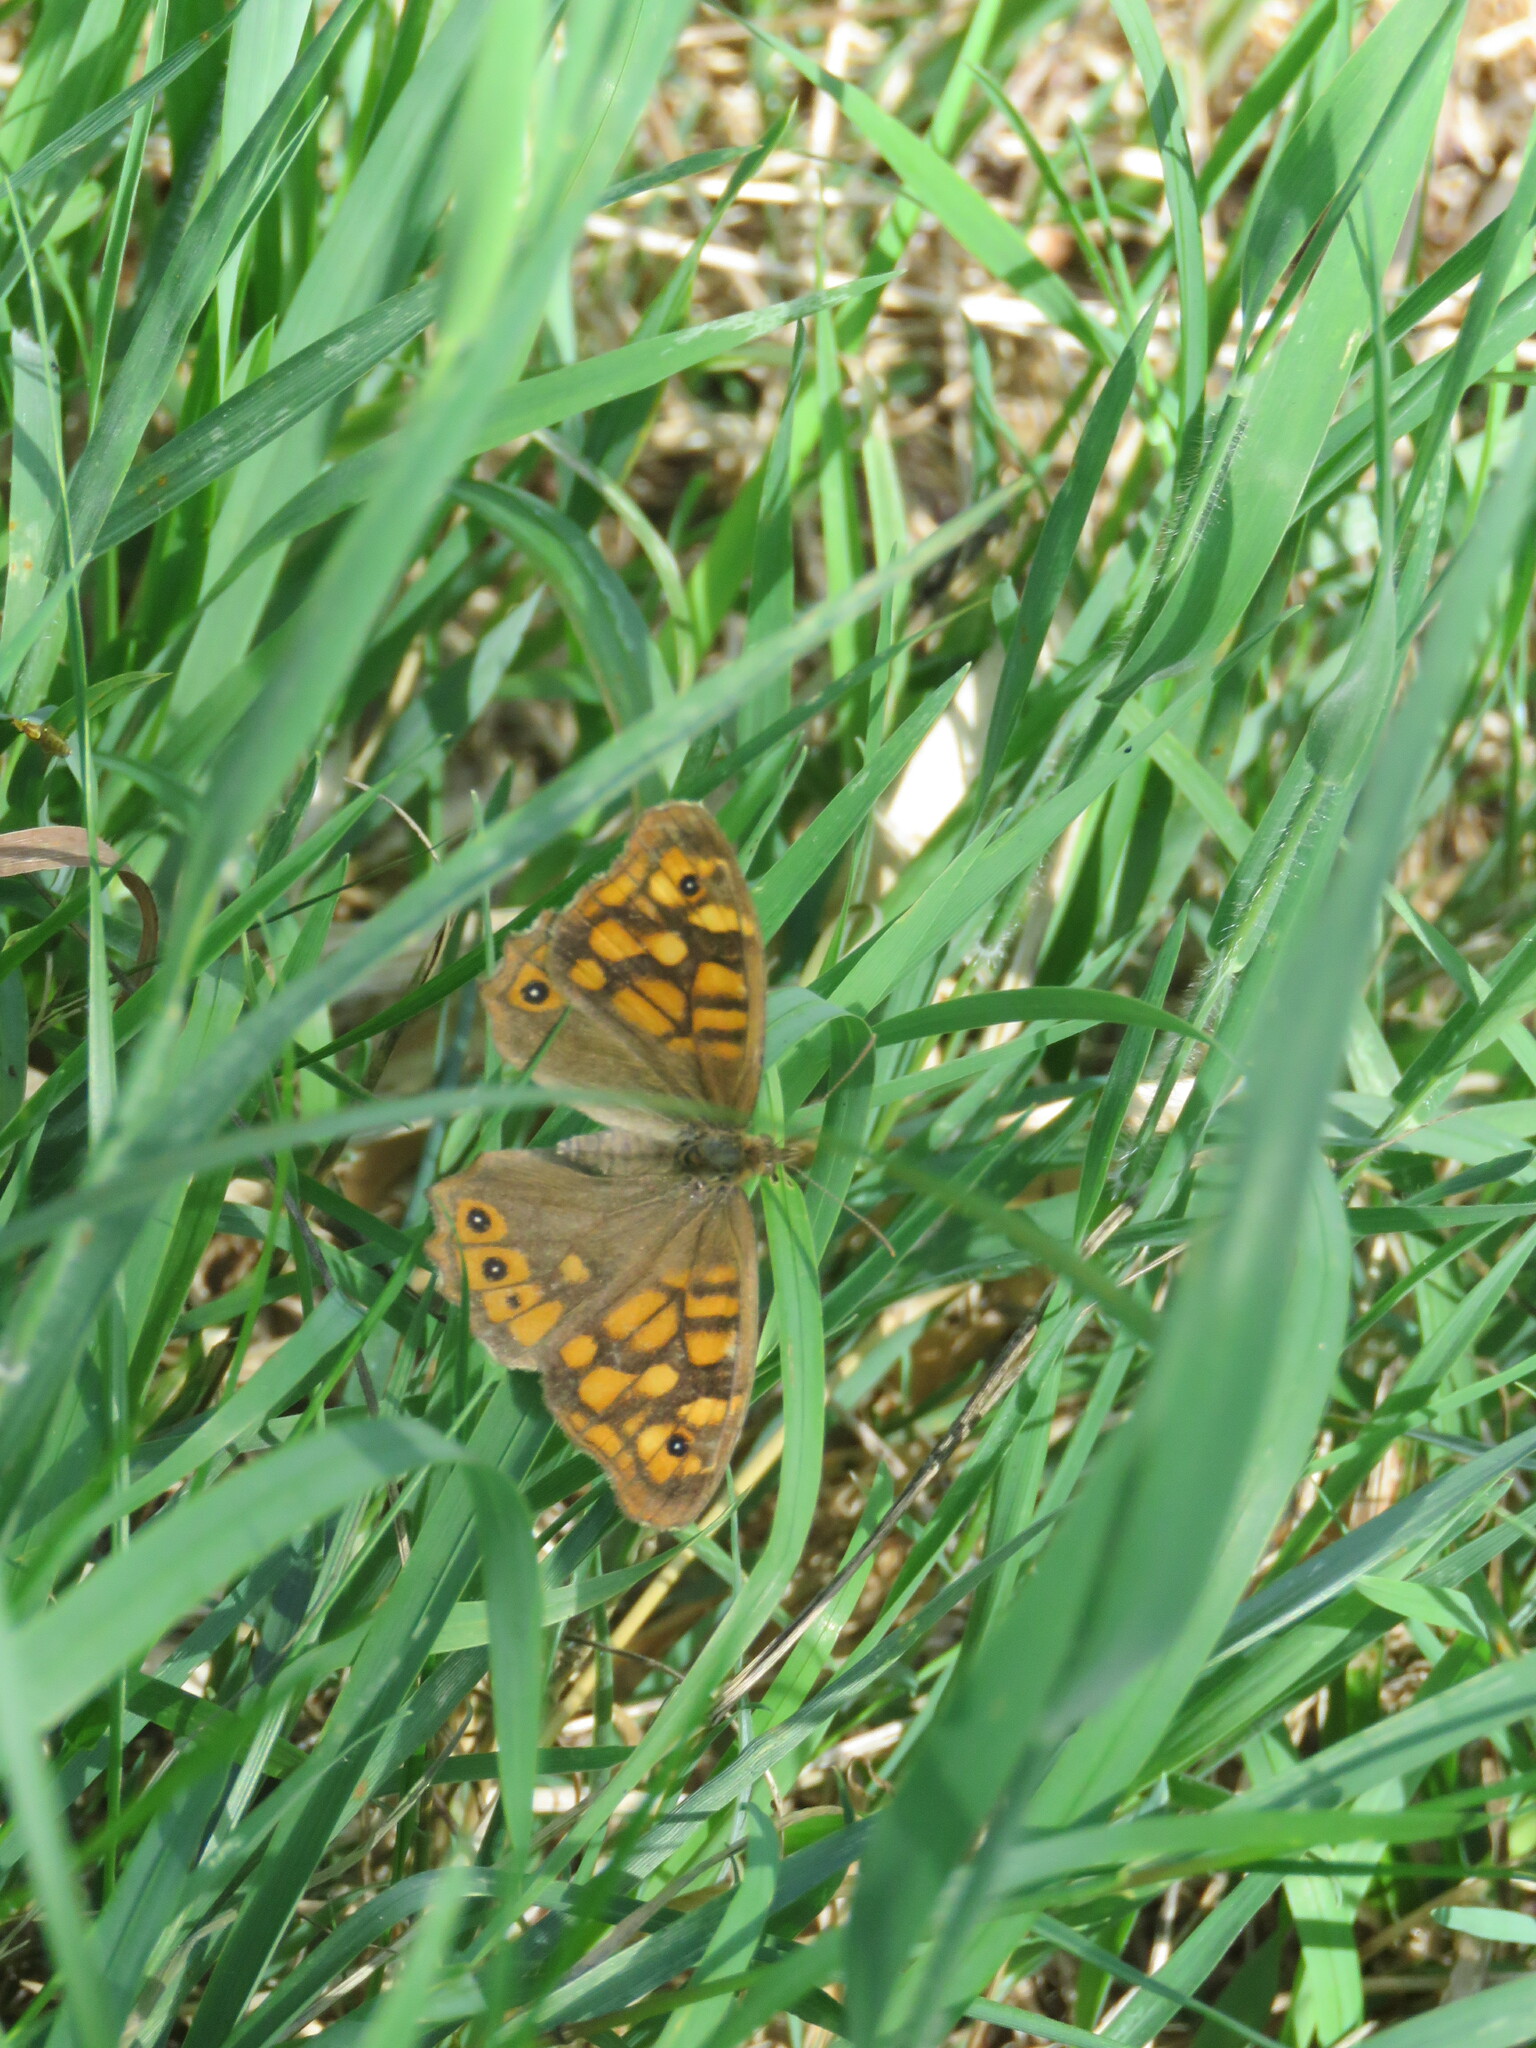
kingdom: Animalia
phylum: Arthropoda
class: Insecta
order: Lepidoptera
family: Nymphalidae
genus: Pararge
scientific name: Pararge aegeria
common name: Speckled wood
